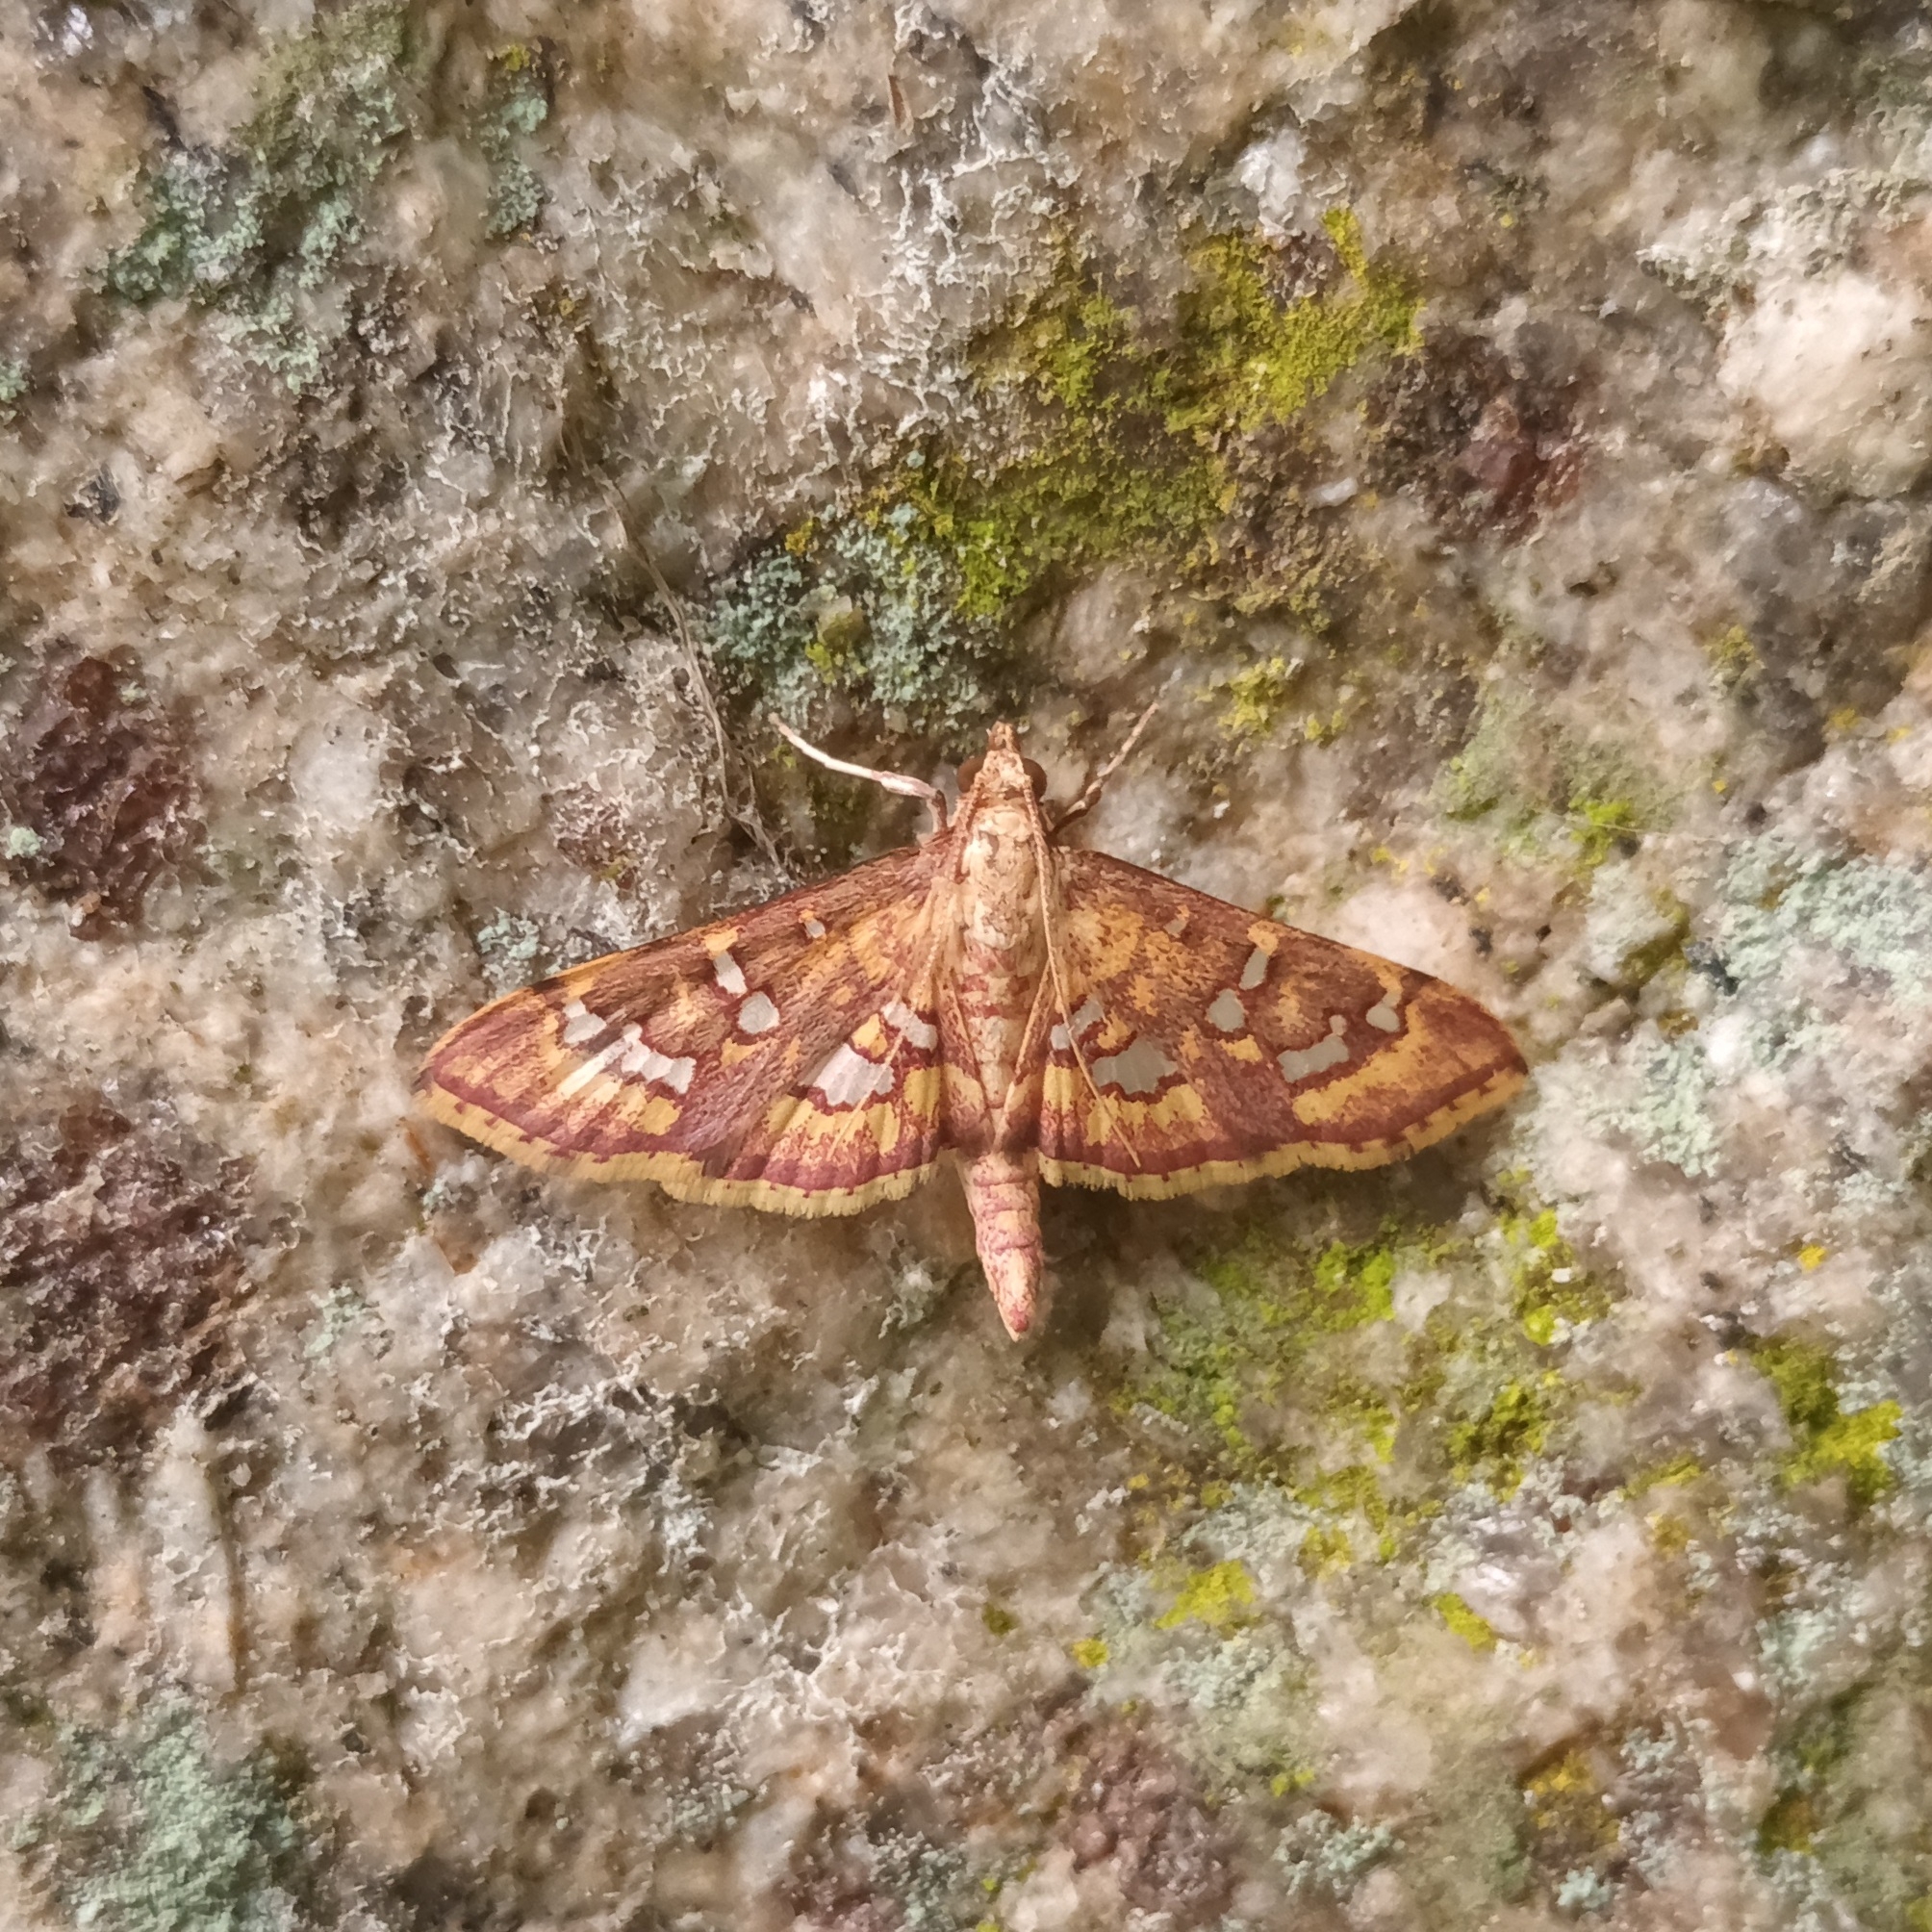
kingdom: Animalia
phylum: Arthropoda
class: Insecta
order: Lepidoptera
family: Crambidae
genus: Ischnurges
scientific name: Ischnurges gratiosalis
